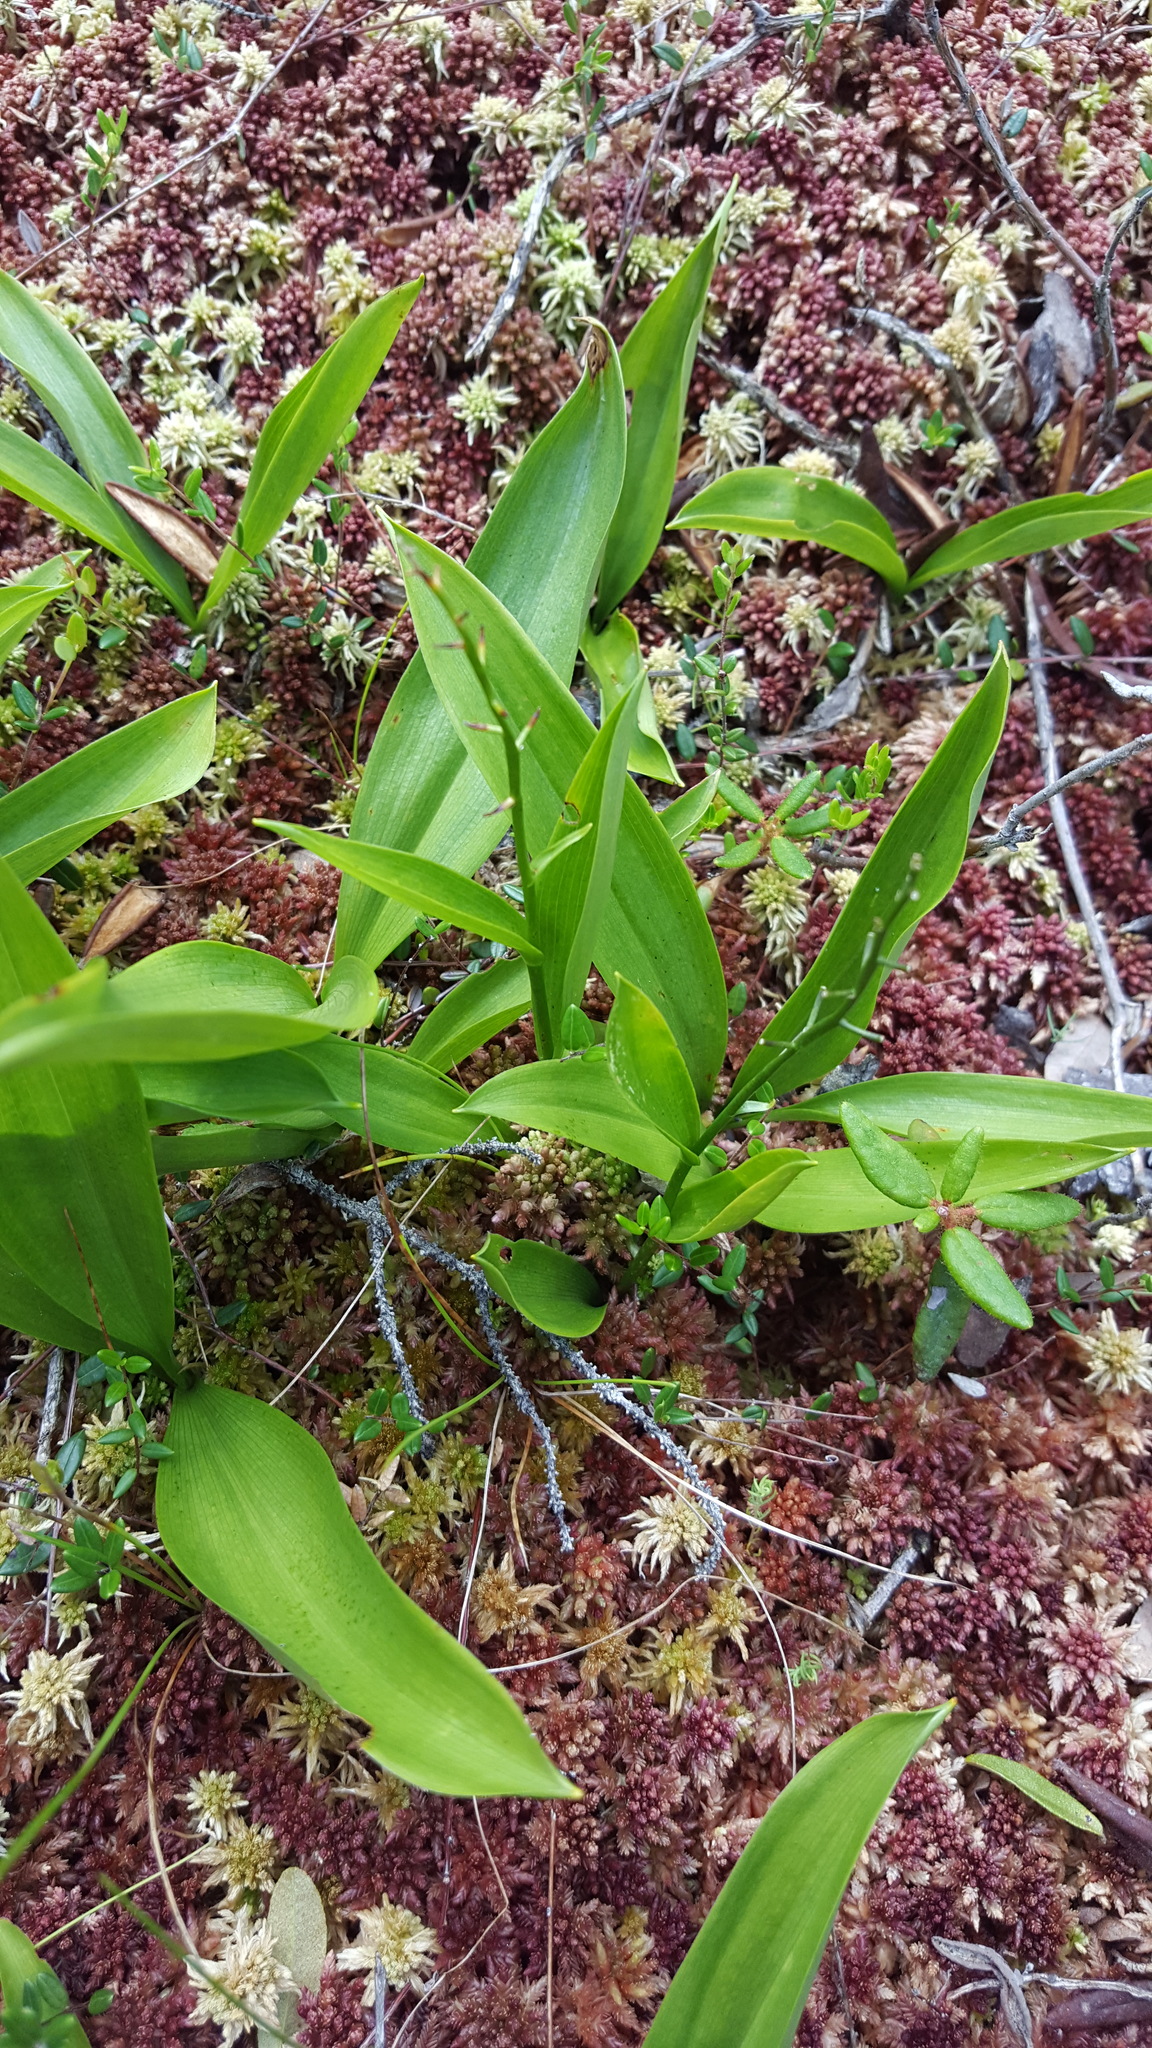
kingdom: Plantae
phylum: Tracheophyta
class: Liliopsida
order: Asparagales
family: Asparagaceae
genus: Maianthemum
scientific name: Maianthemum trifolium
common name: Swamp false solomon's seal
